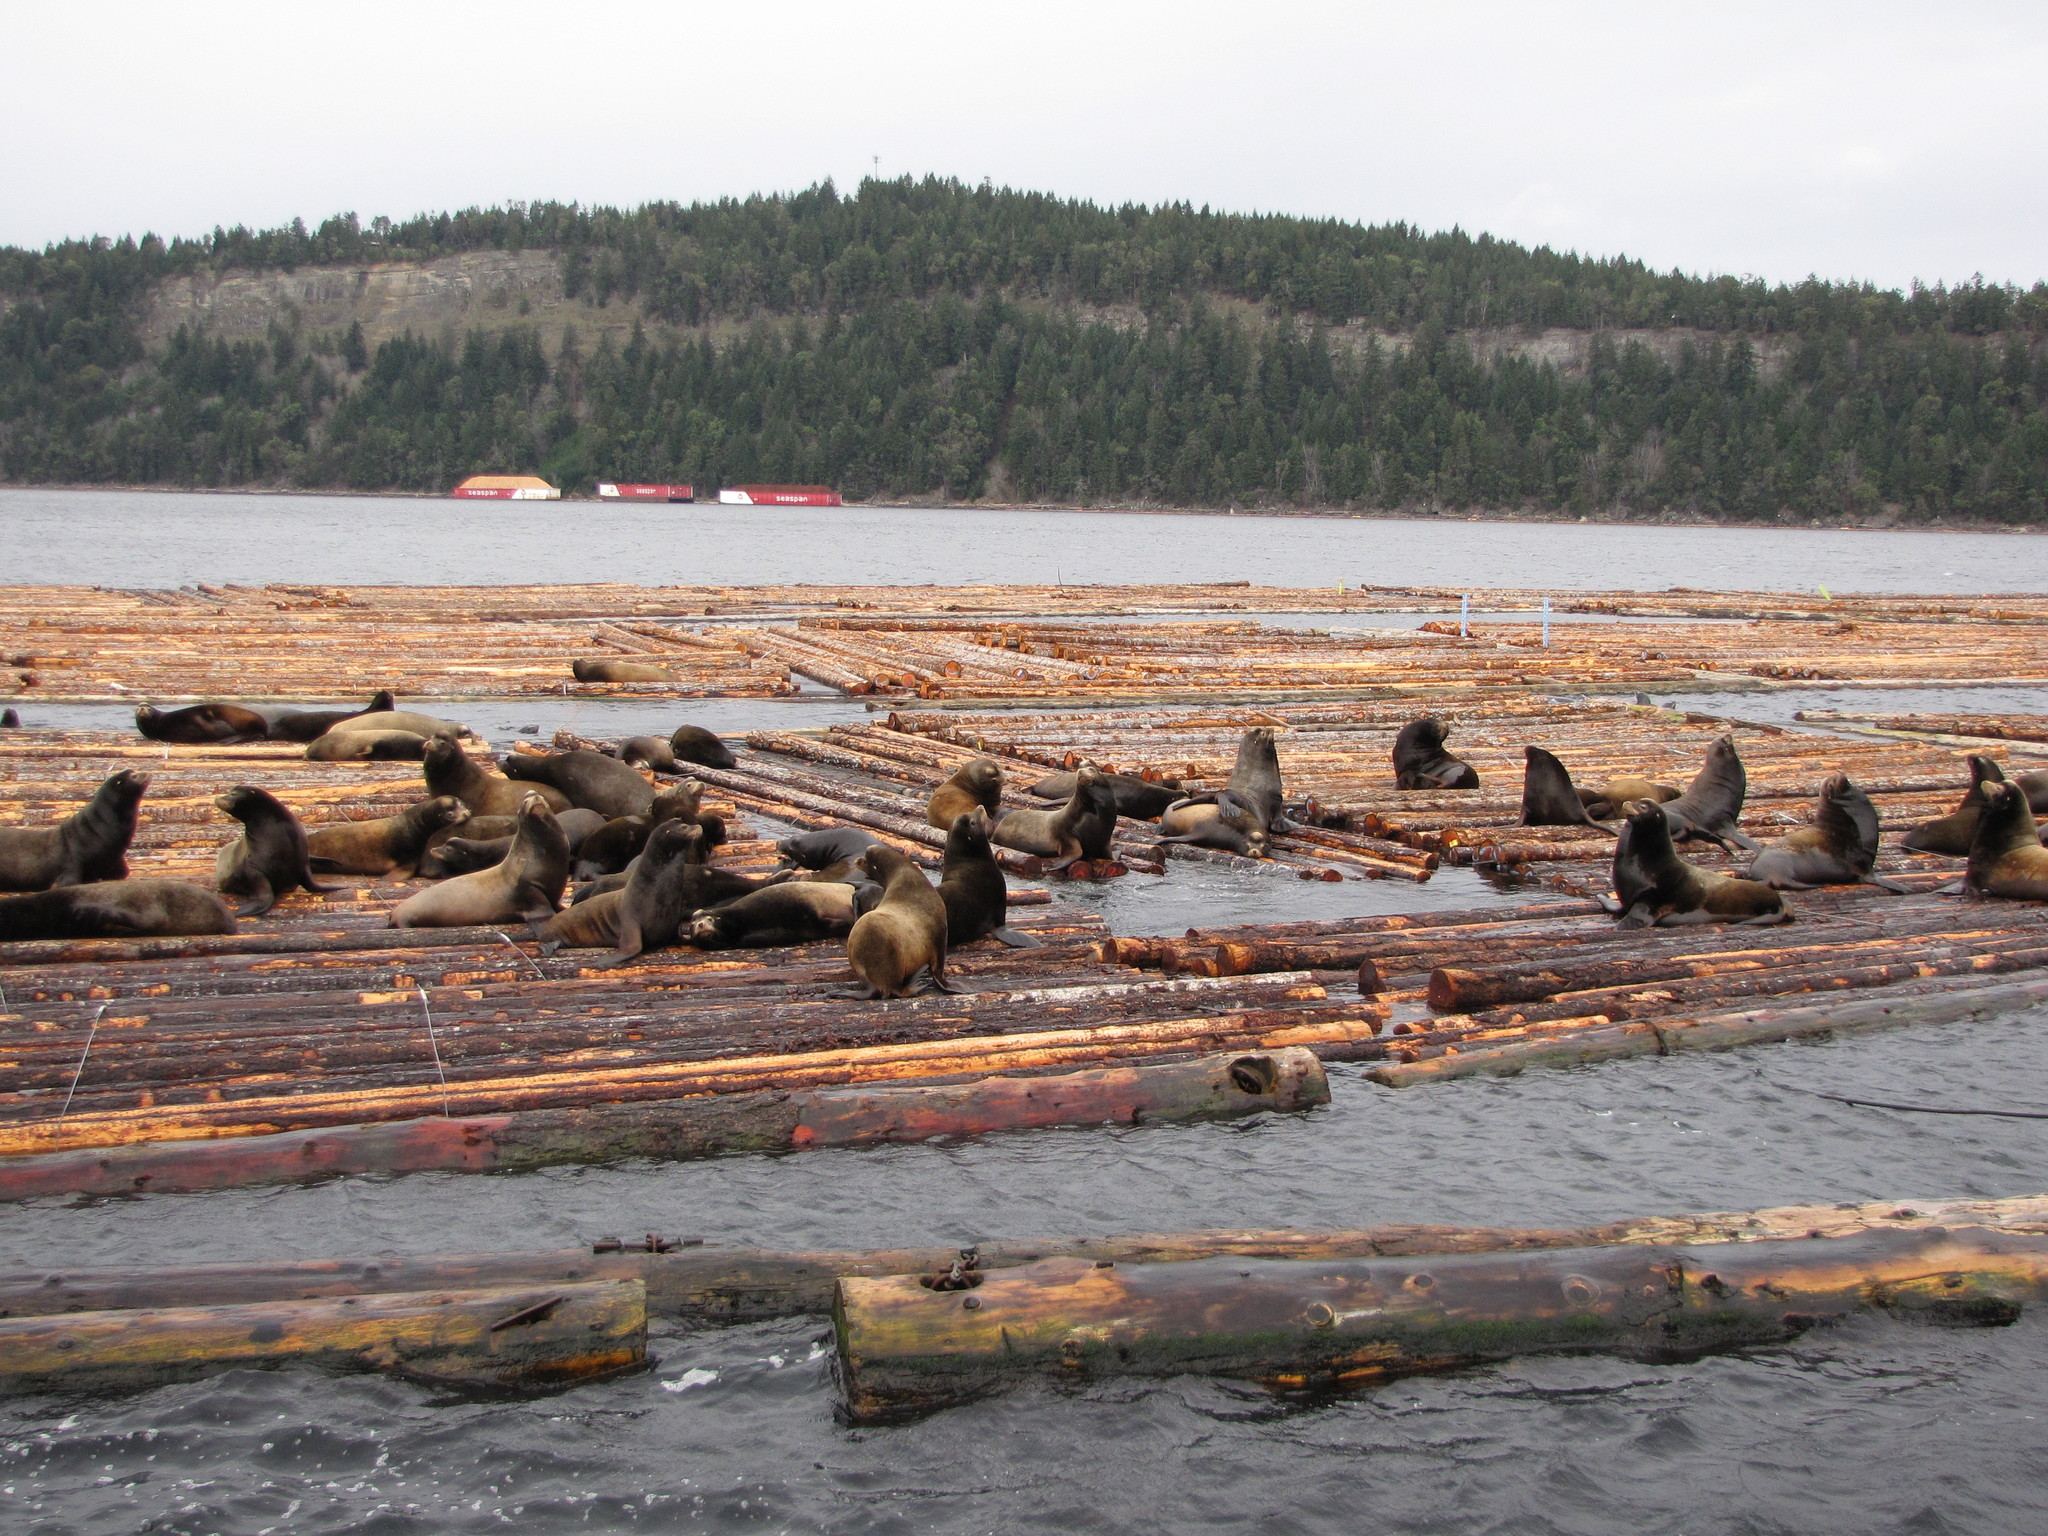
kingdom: Animalia
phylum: Chordata
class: Mammalia
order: Carnivora
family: Otariidae
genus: Zalophus
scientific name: Zalophus californianus
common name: California sea lion
